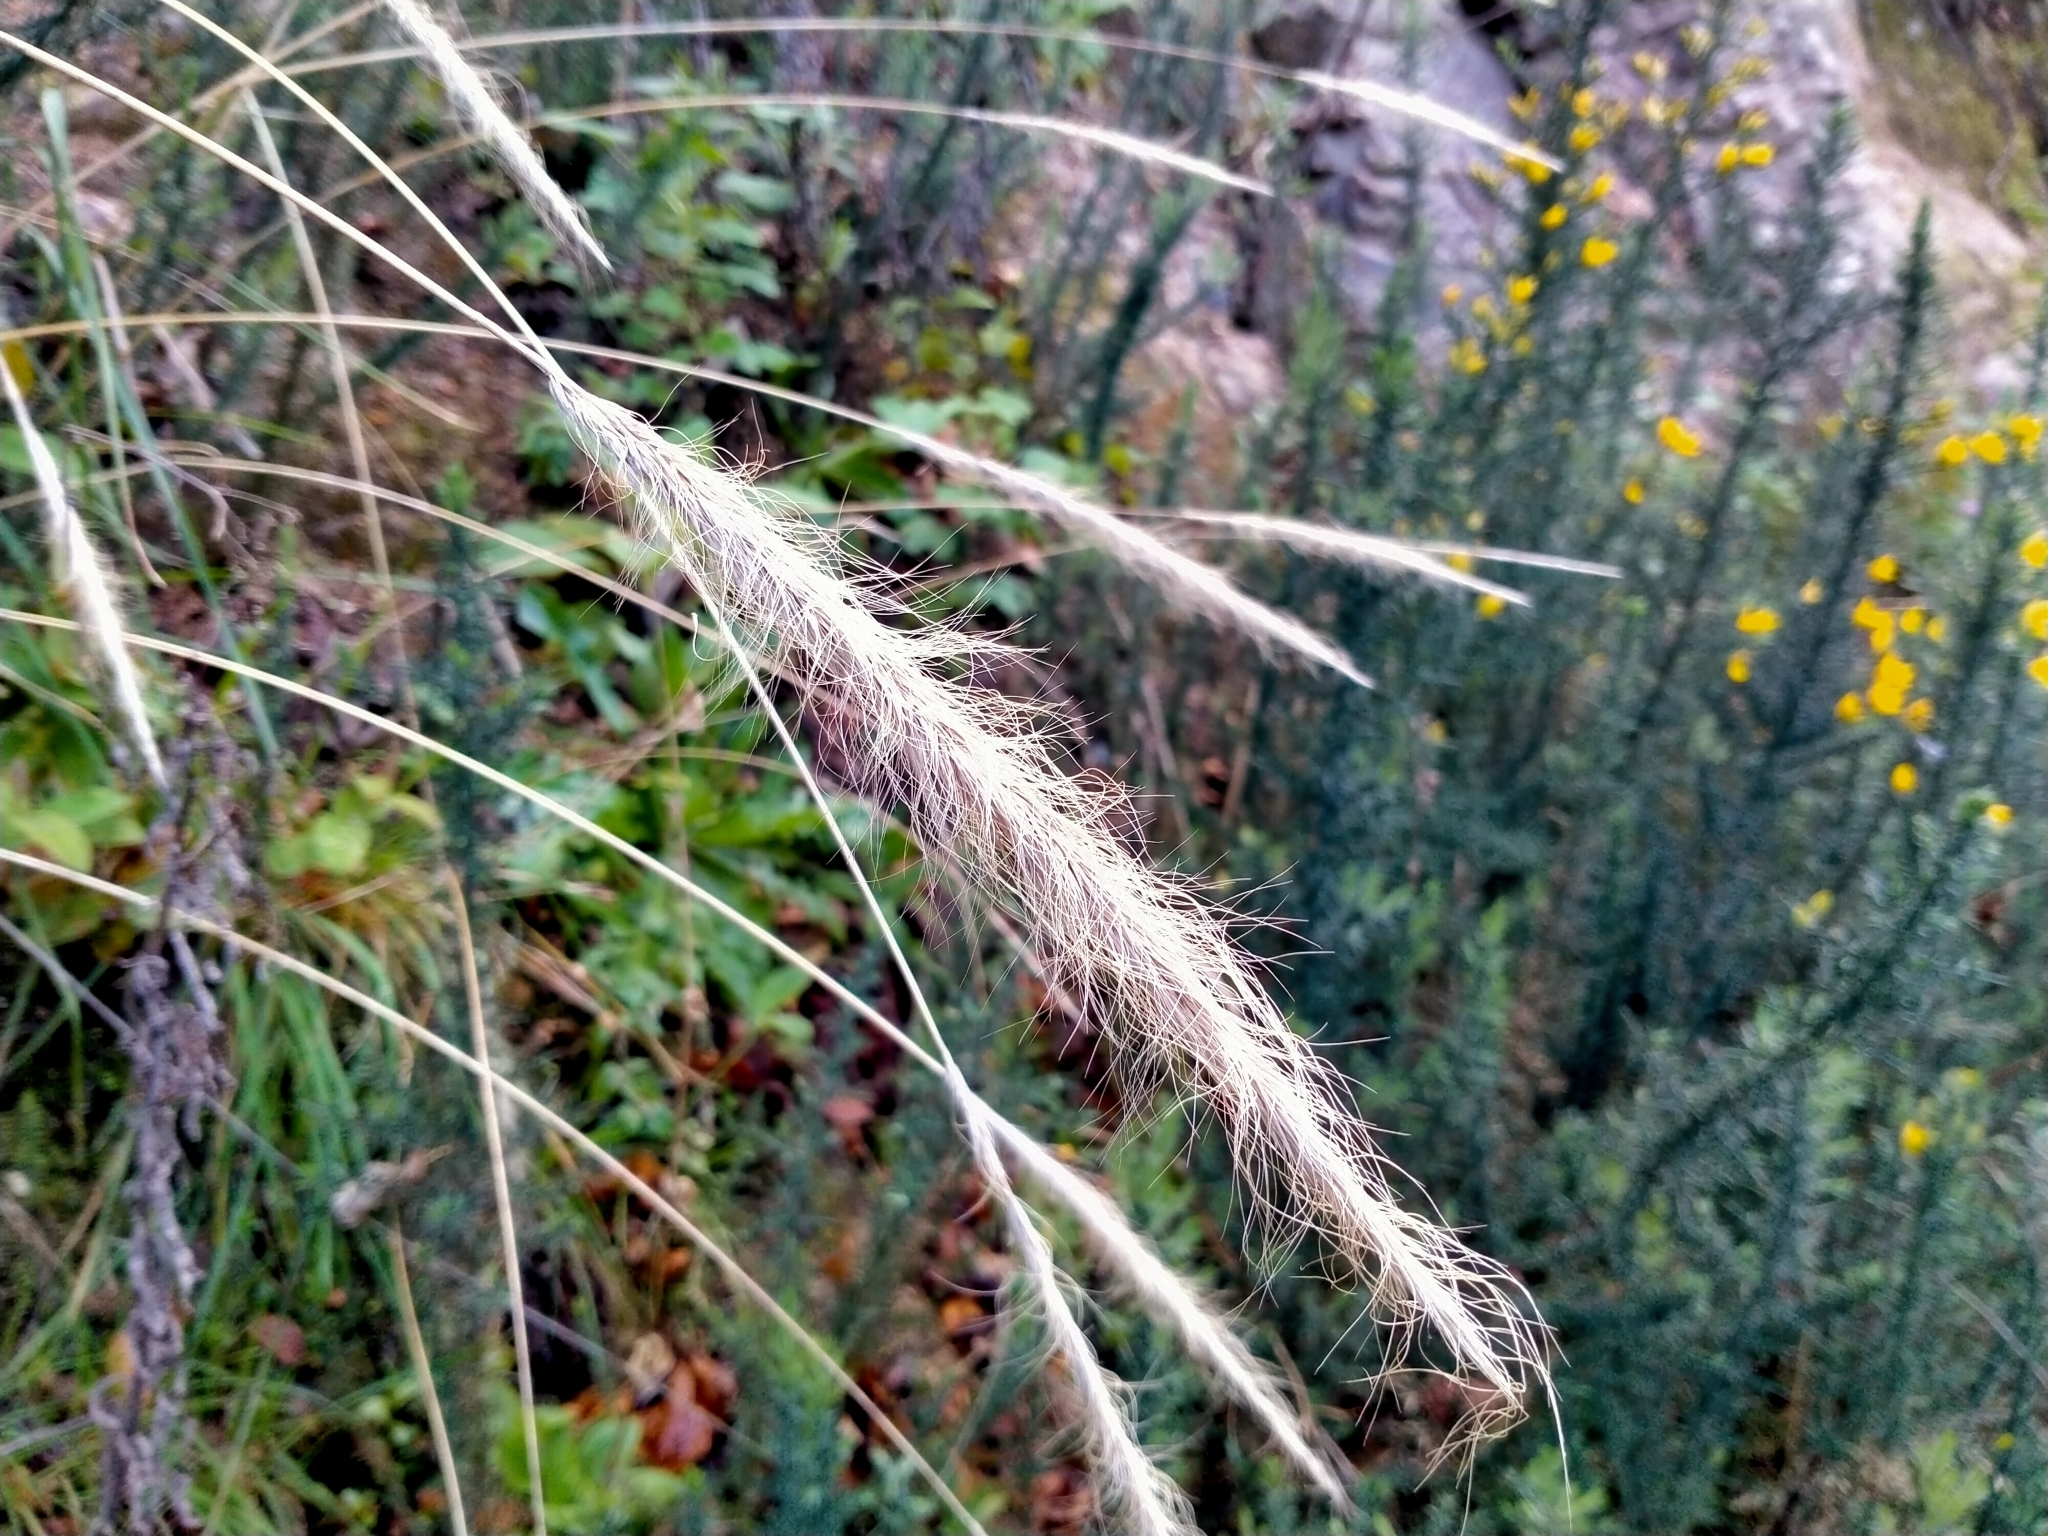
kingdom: Plantae
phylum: Tracheophyta
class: Liliopsida
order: Poales
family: Poaceae
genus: Dichelachne
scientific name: Dichelachne crinita
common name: Clovenfoot plumegrass
